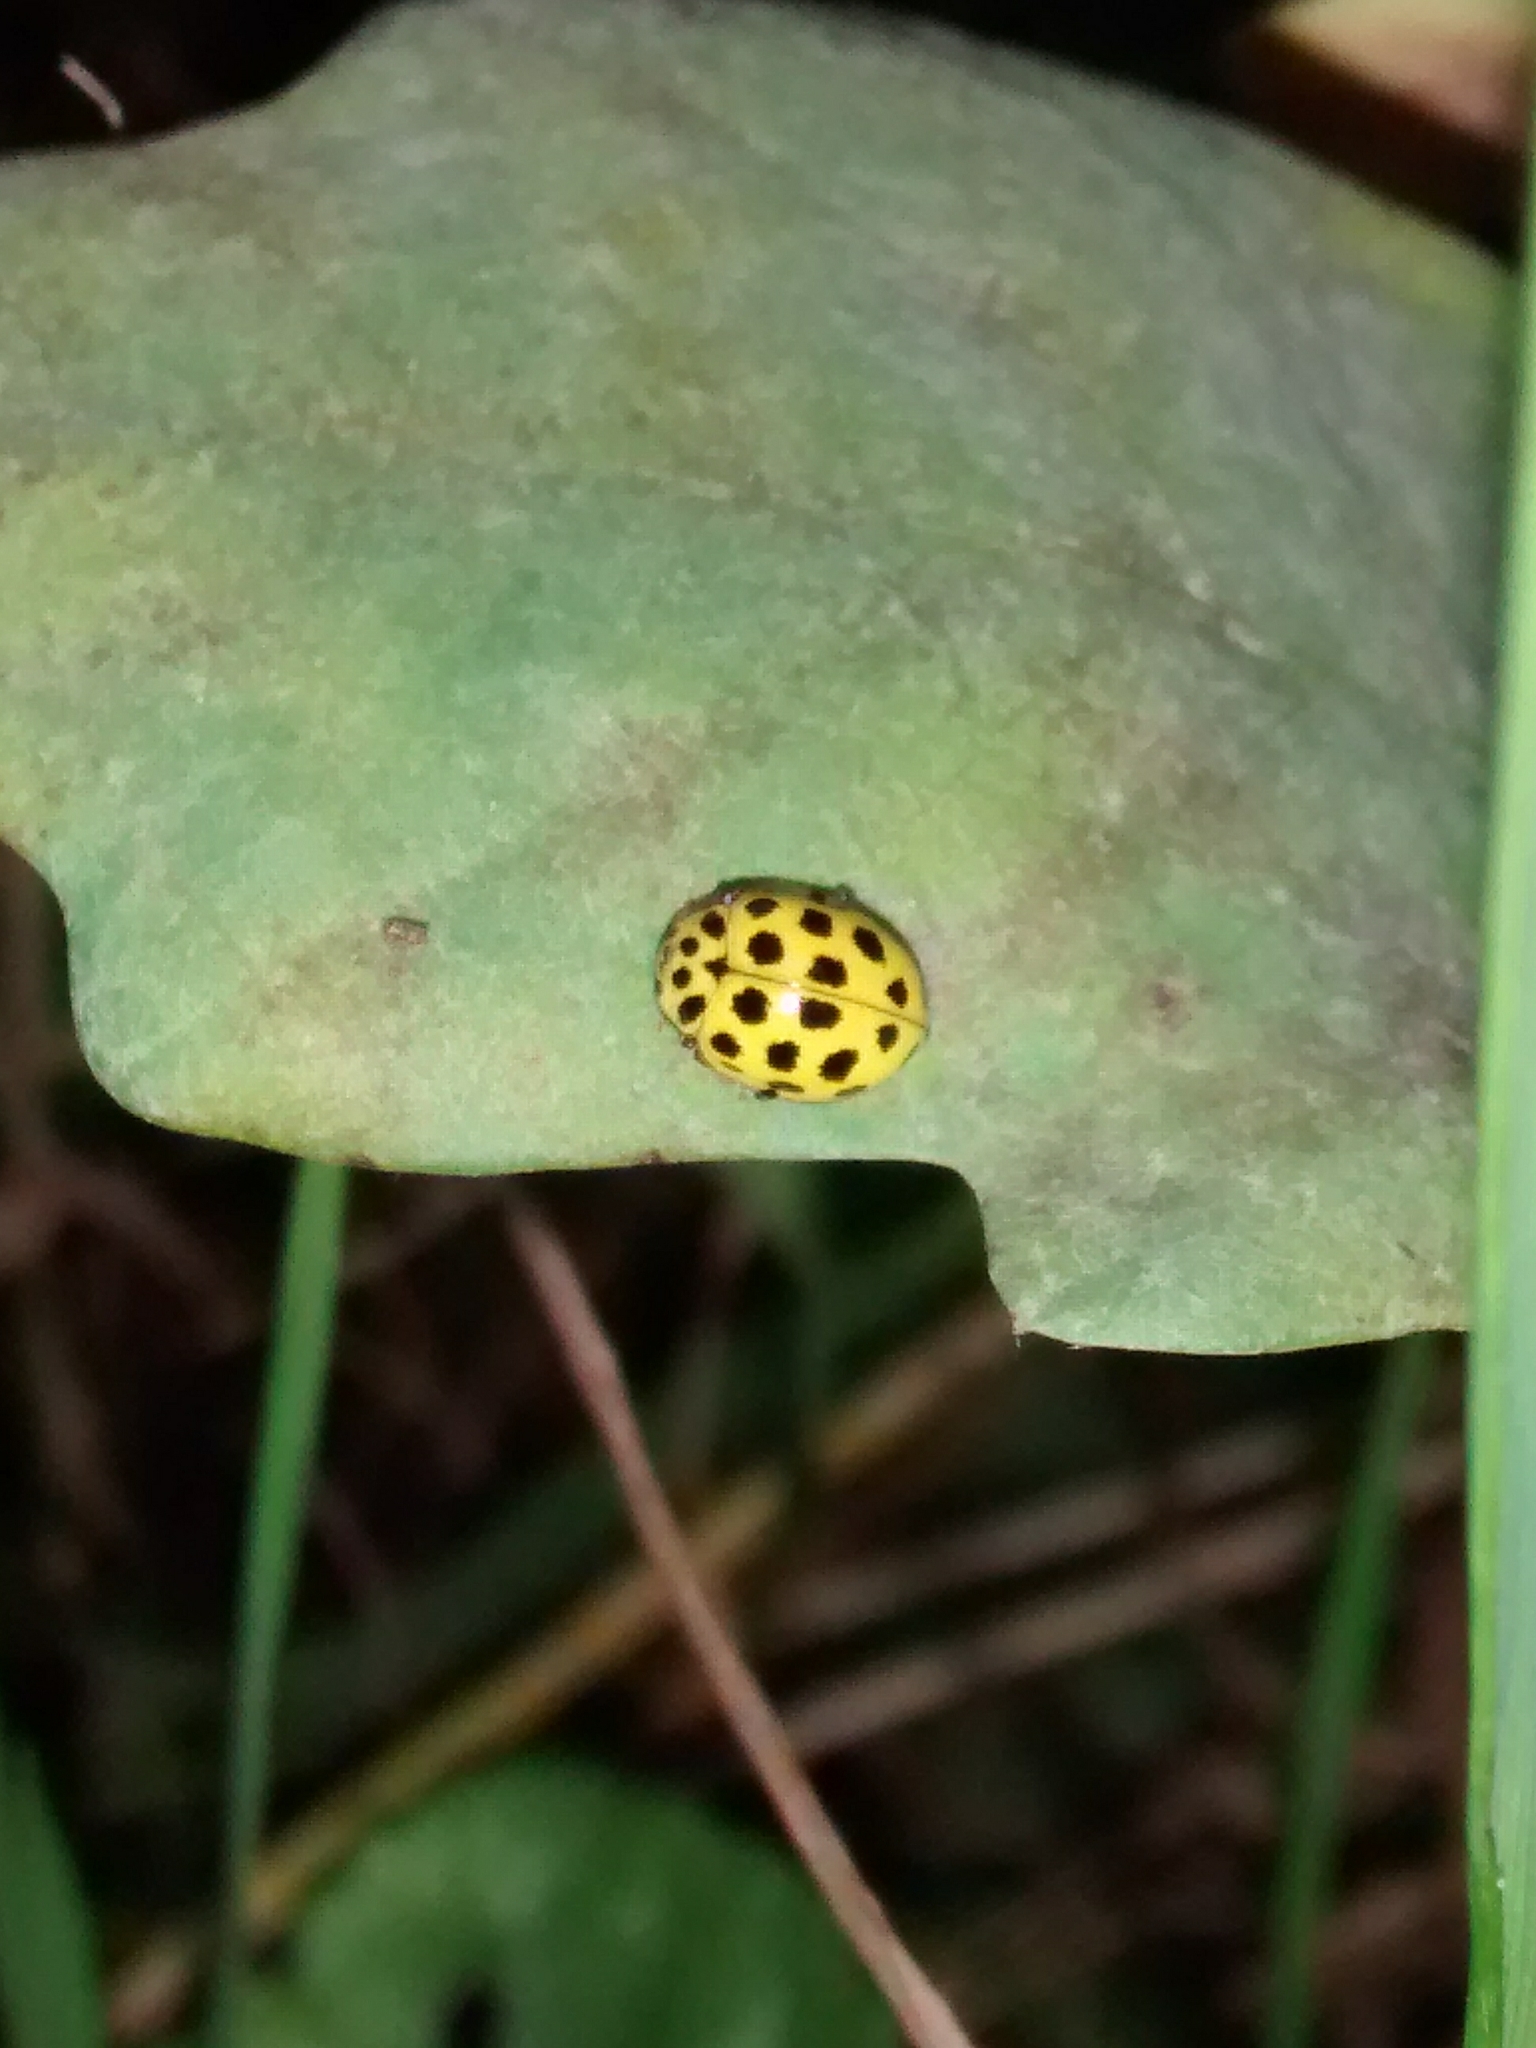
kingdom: Animalia
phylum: Arthropoda
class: Insecta
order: Coleoptera
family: Coccinellidae
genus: Psyllobora
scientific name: Psyllobora vigintiduopunctata
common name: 22-spot ladybird
